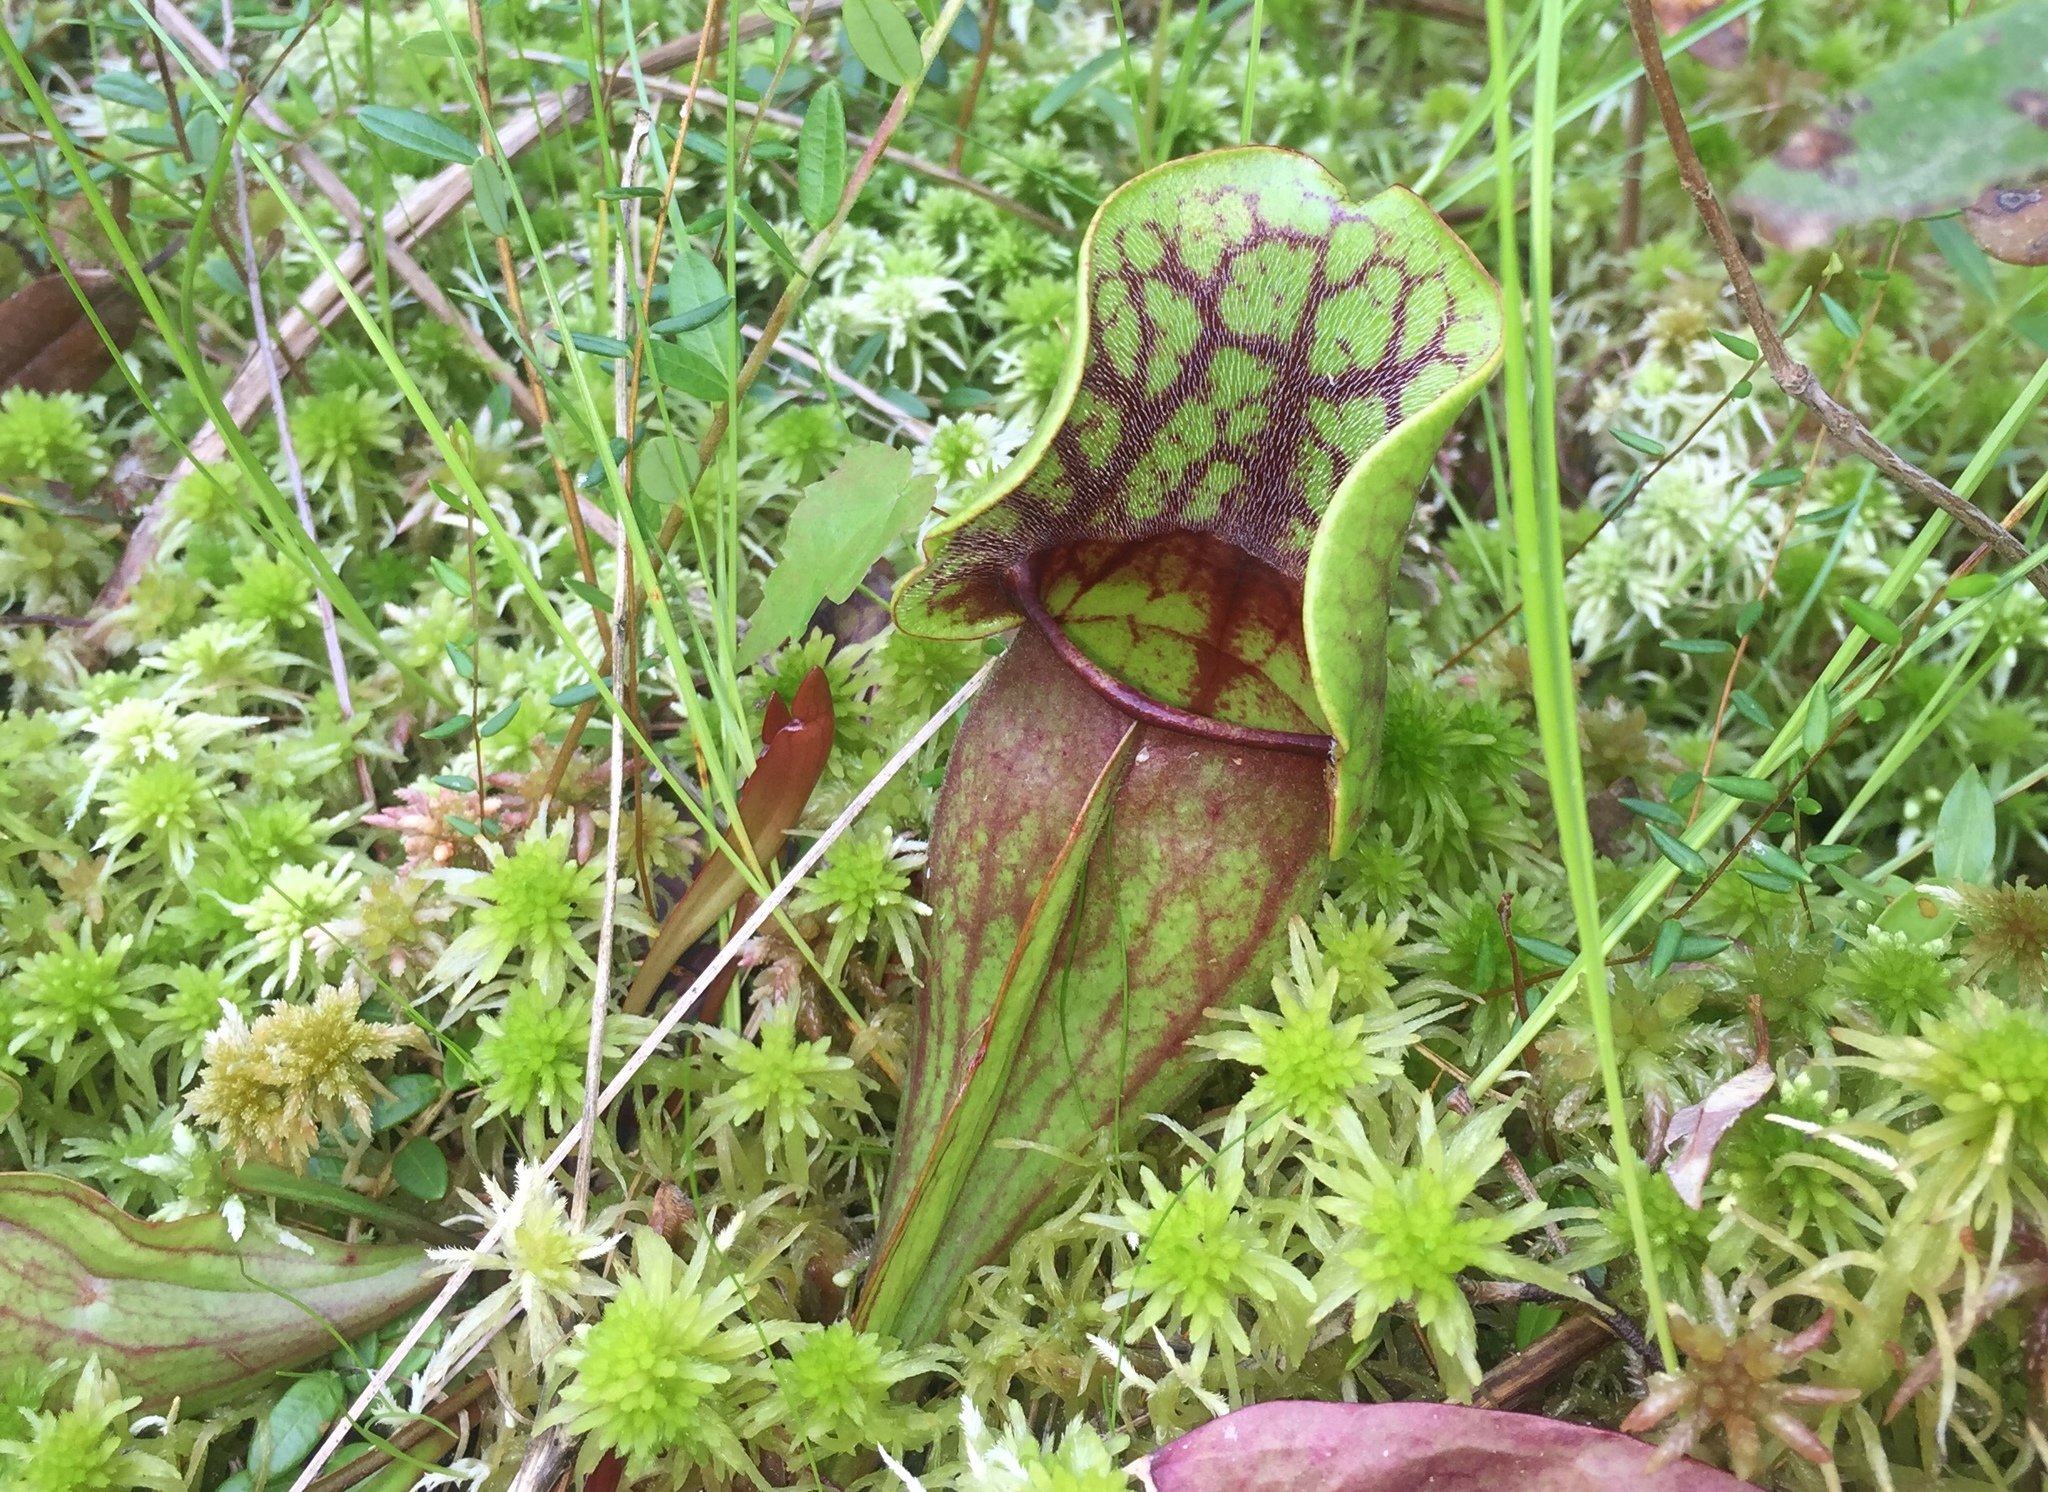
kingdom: Plantae
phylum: Tracheophyta
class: Magnoliopsida
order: Ericales
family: Sarraceniaceae
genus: Sarracenia
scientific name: Sarracenia purpurea
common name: Pitcherplant
